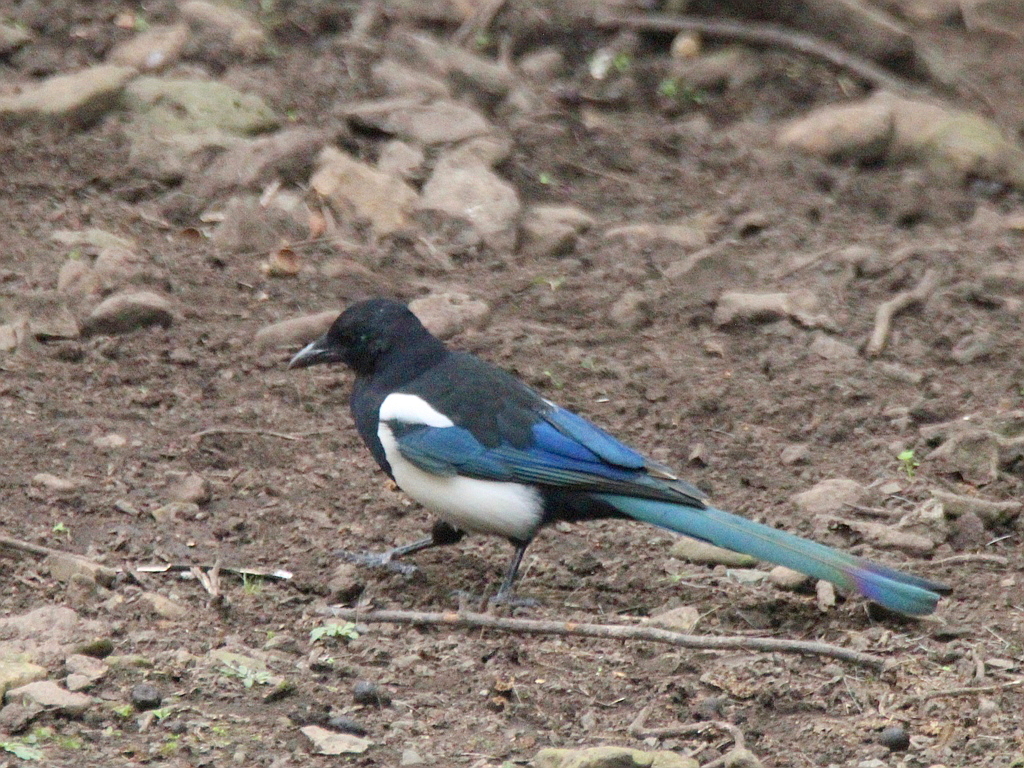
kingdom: Animalia
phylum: Chordata
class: Aves
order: Passeriformes
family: Corvidae
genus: Pica
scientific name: Pica serica
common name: Oriental magpie
